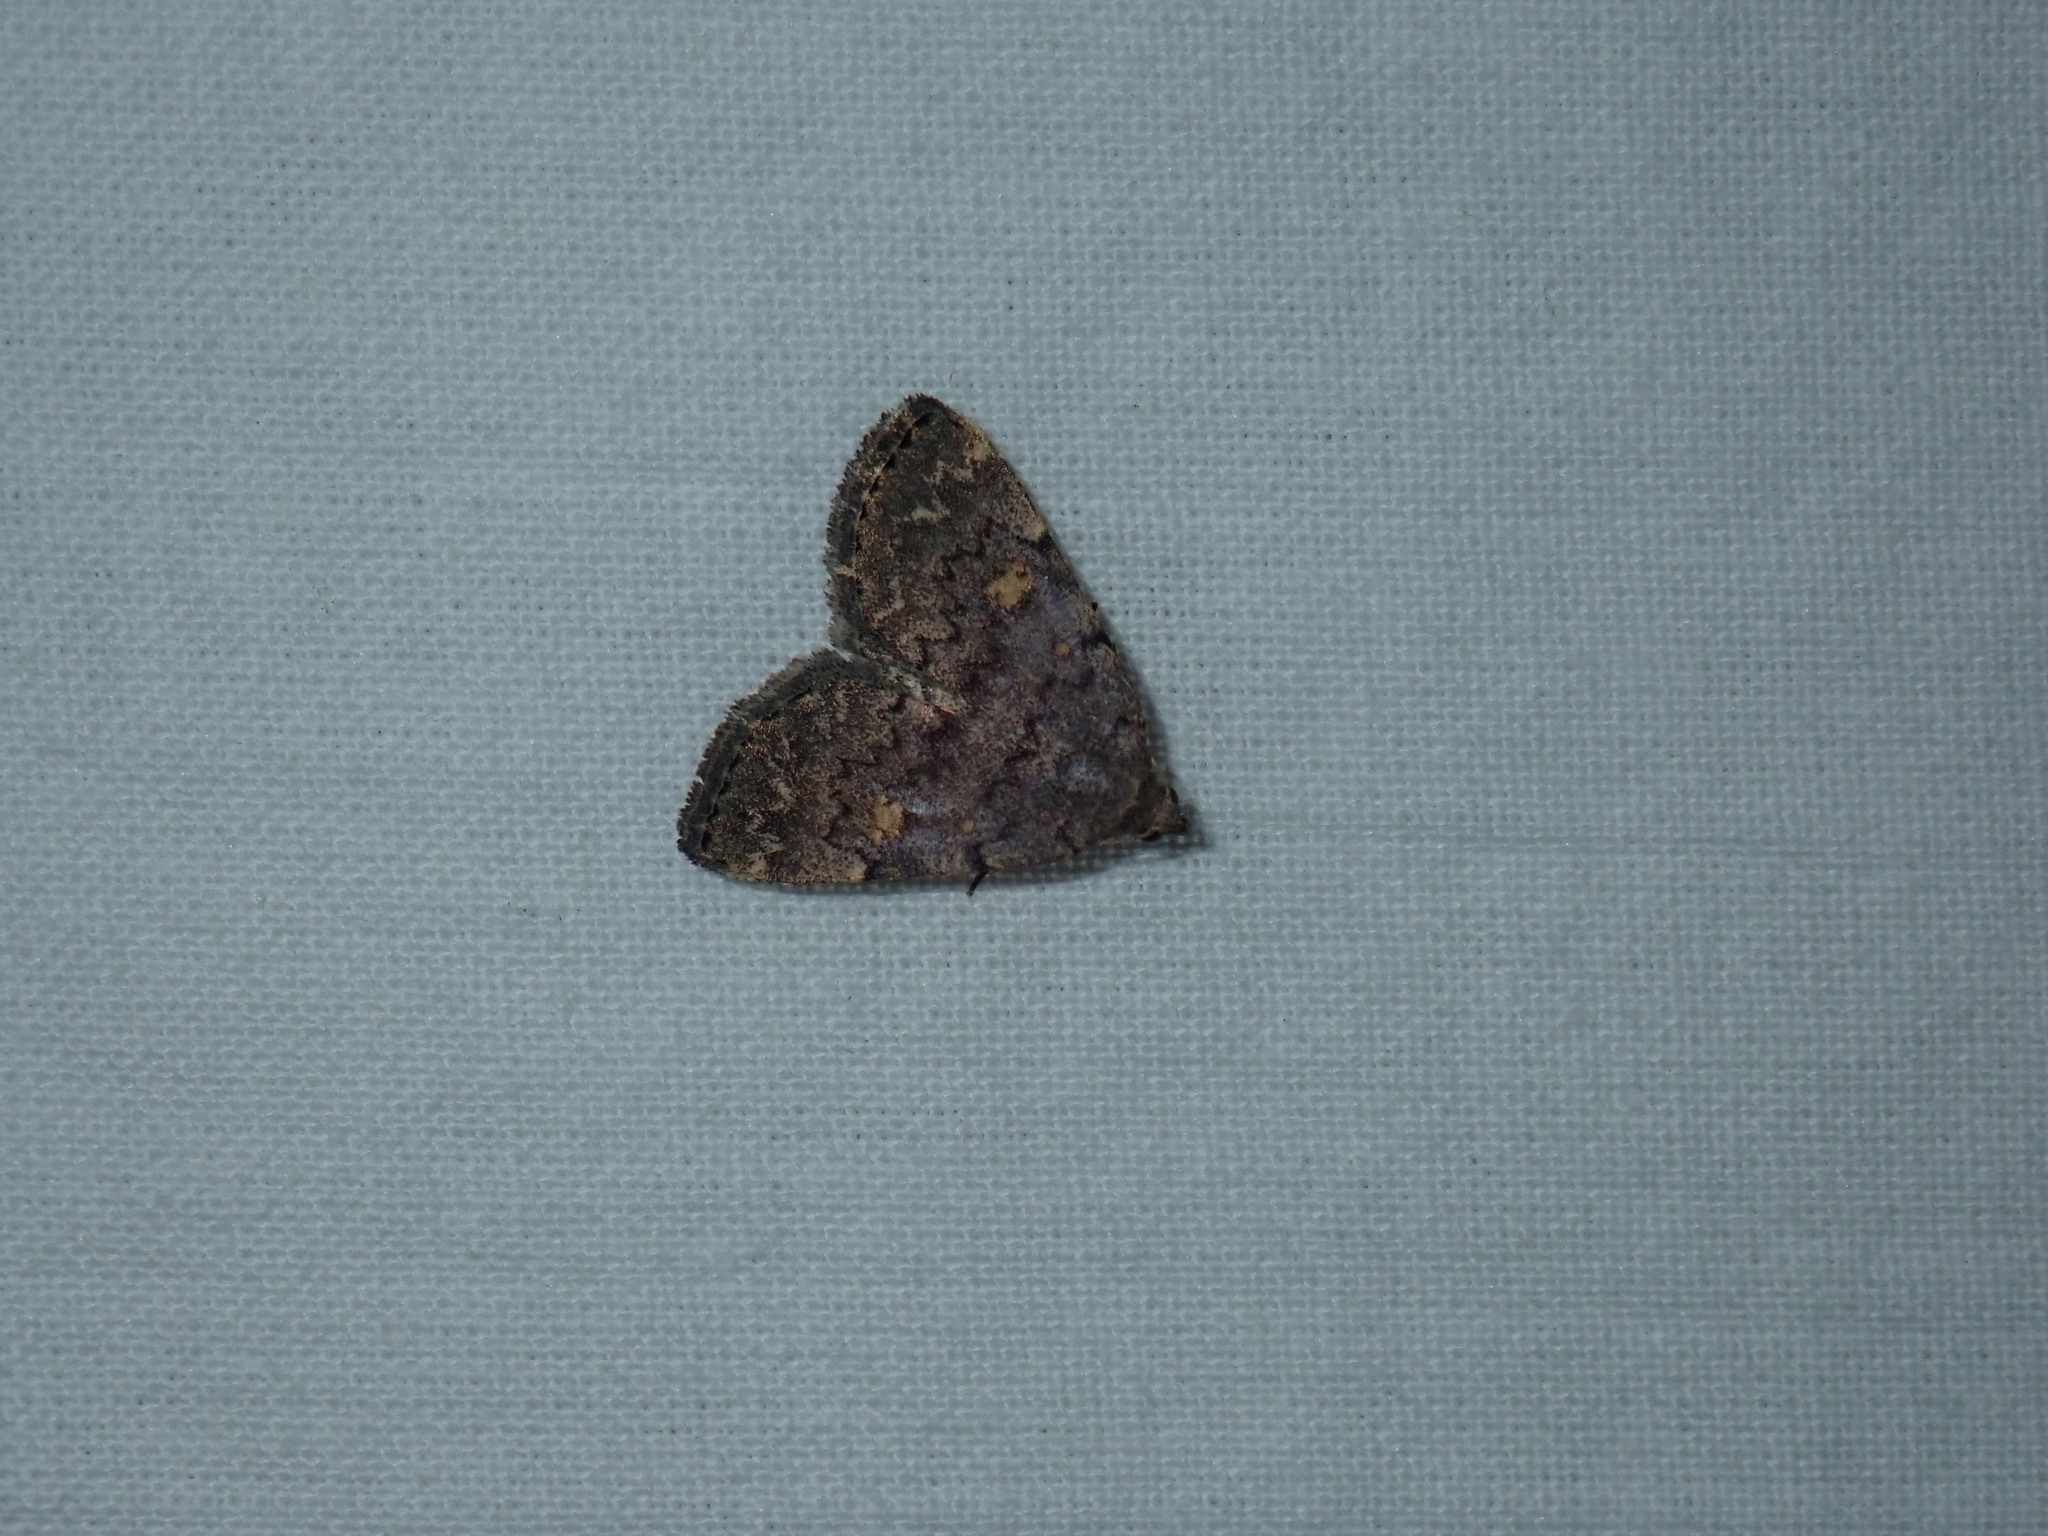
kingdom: Animalia
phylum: Arthropoda
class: Insecta
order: Lepidoptera
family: Erebidae
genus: Idia
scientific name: Idia aemula
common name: Common idia moth
